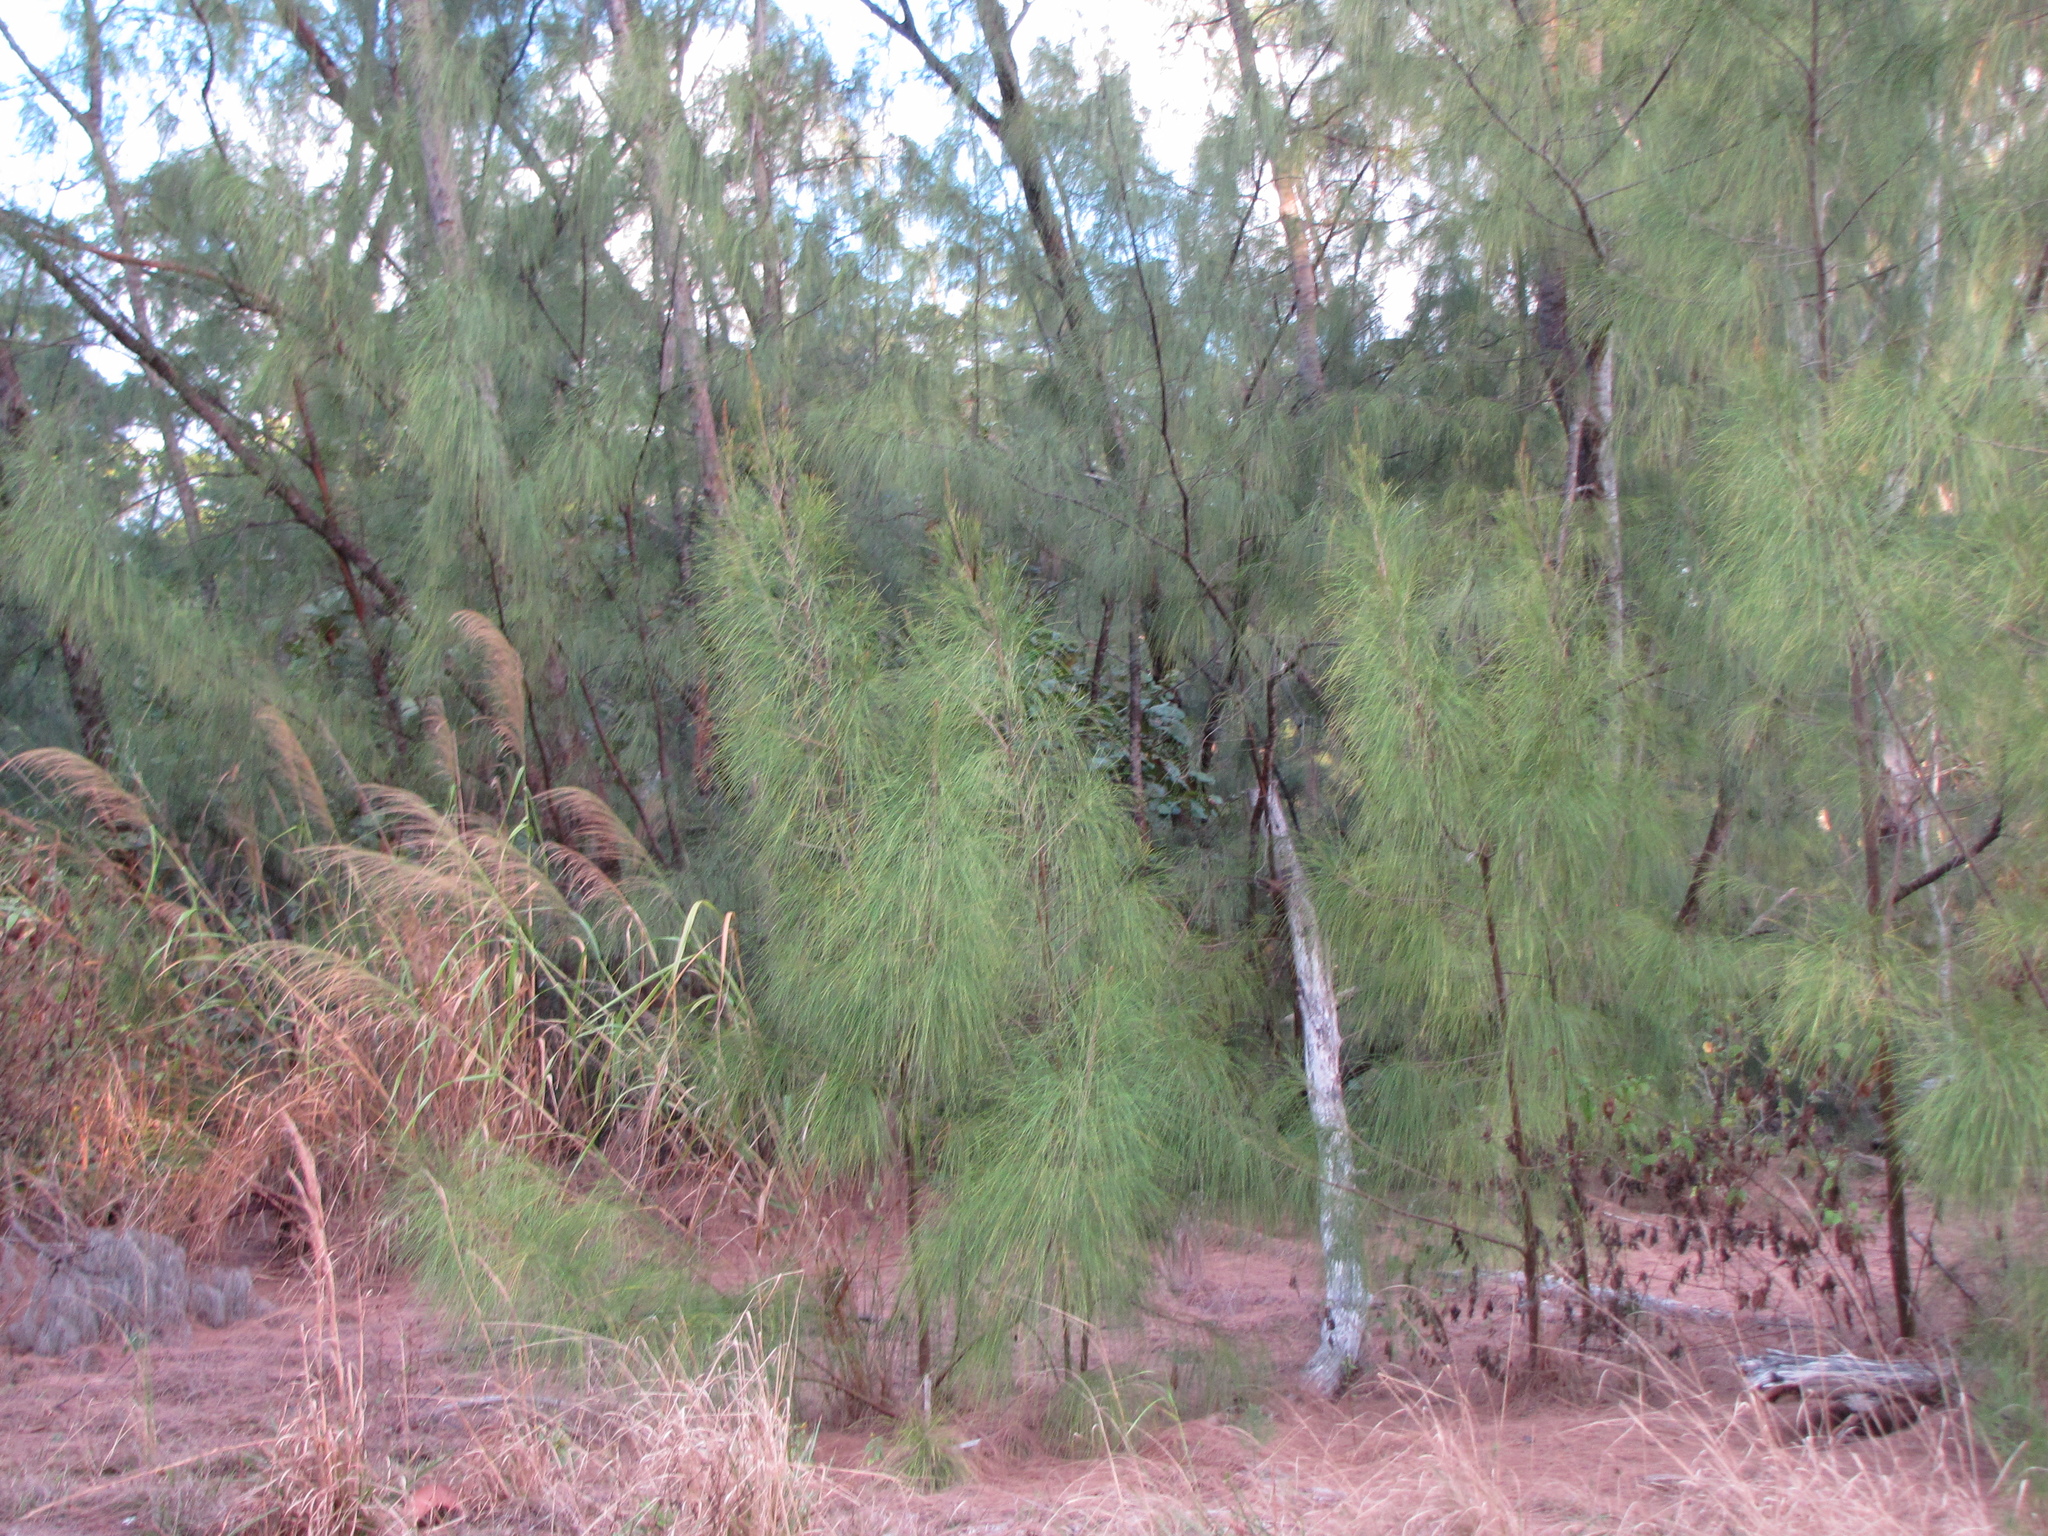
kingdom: Plantae
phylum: Tracheophyta
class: Magnoliopsida
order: Fagales
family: Casuarinaceae
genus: Casuarina
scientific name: Casuarina equisetifolia
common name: Beach sheoak
